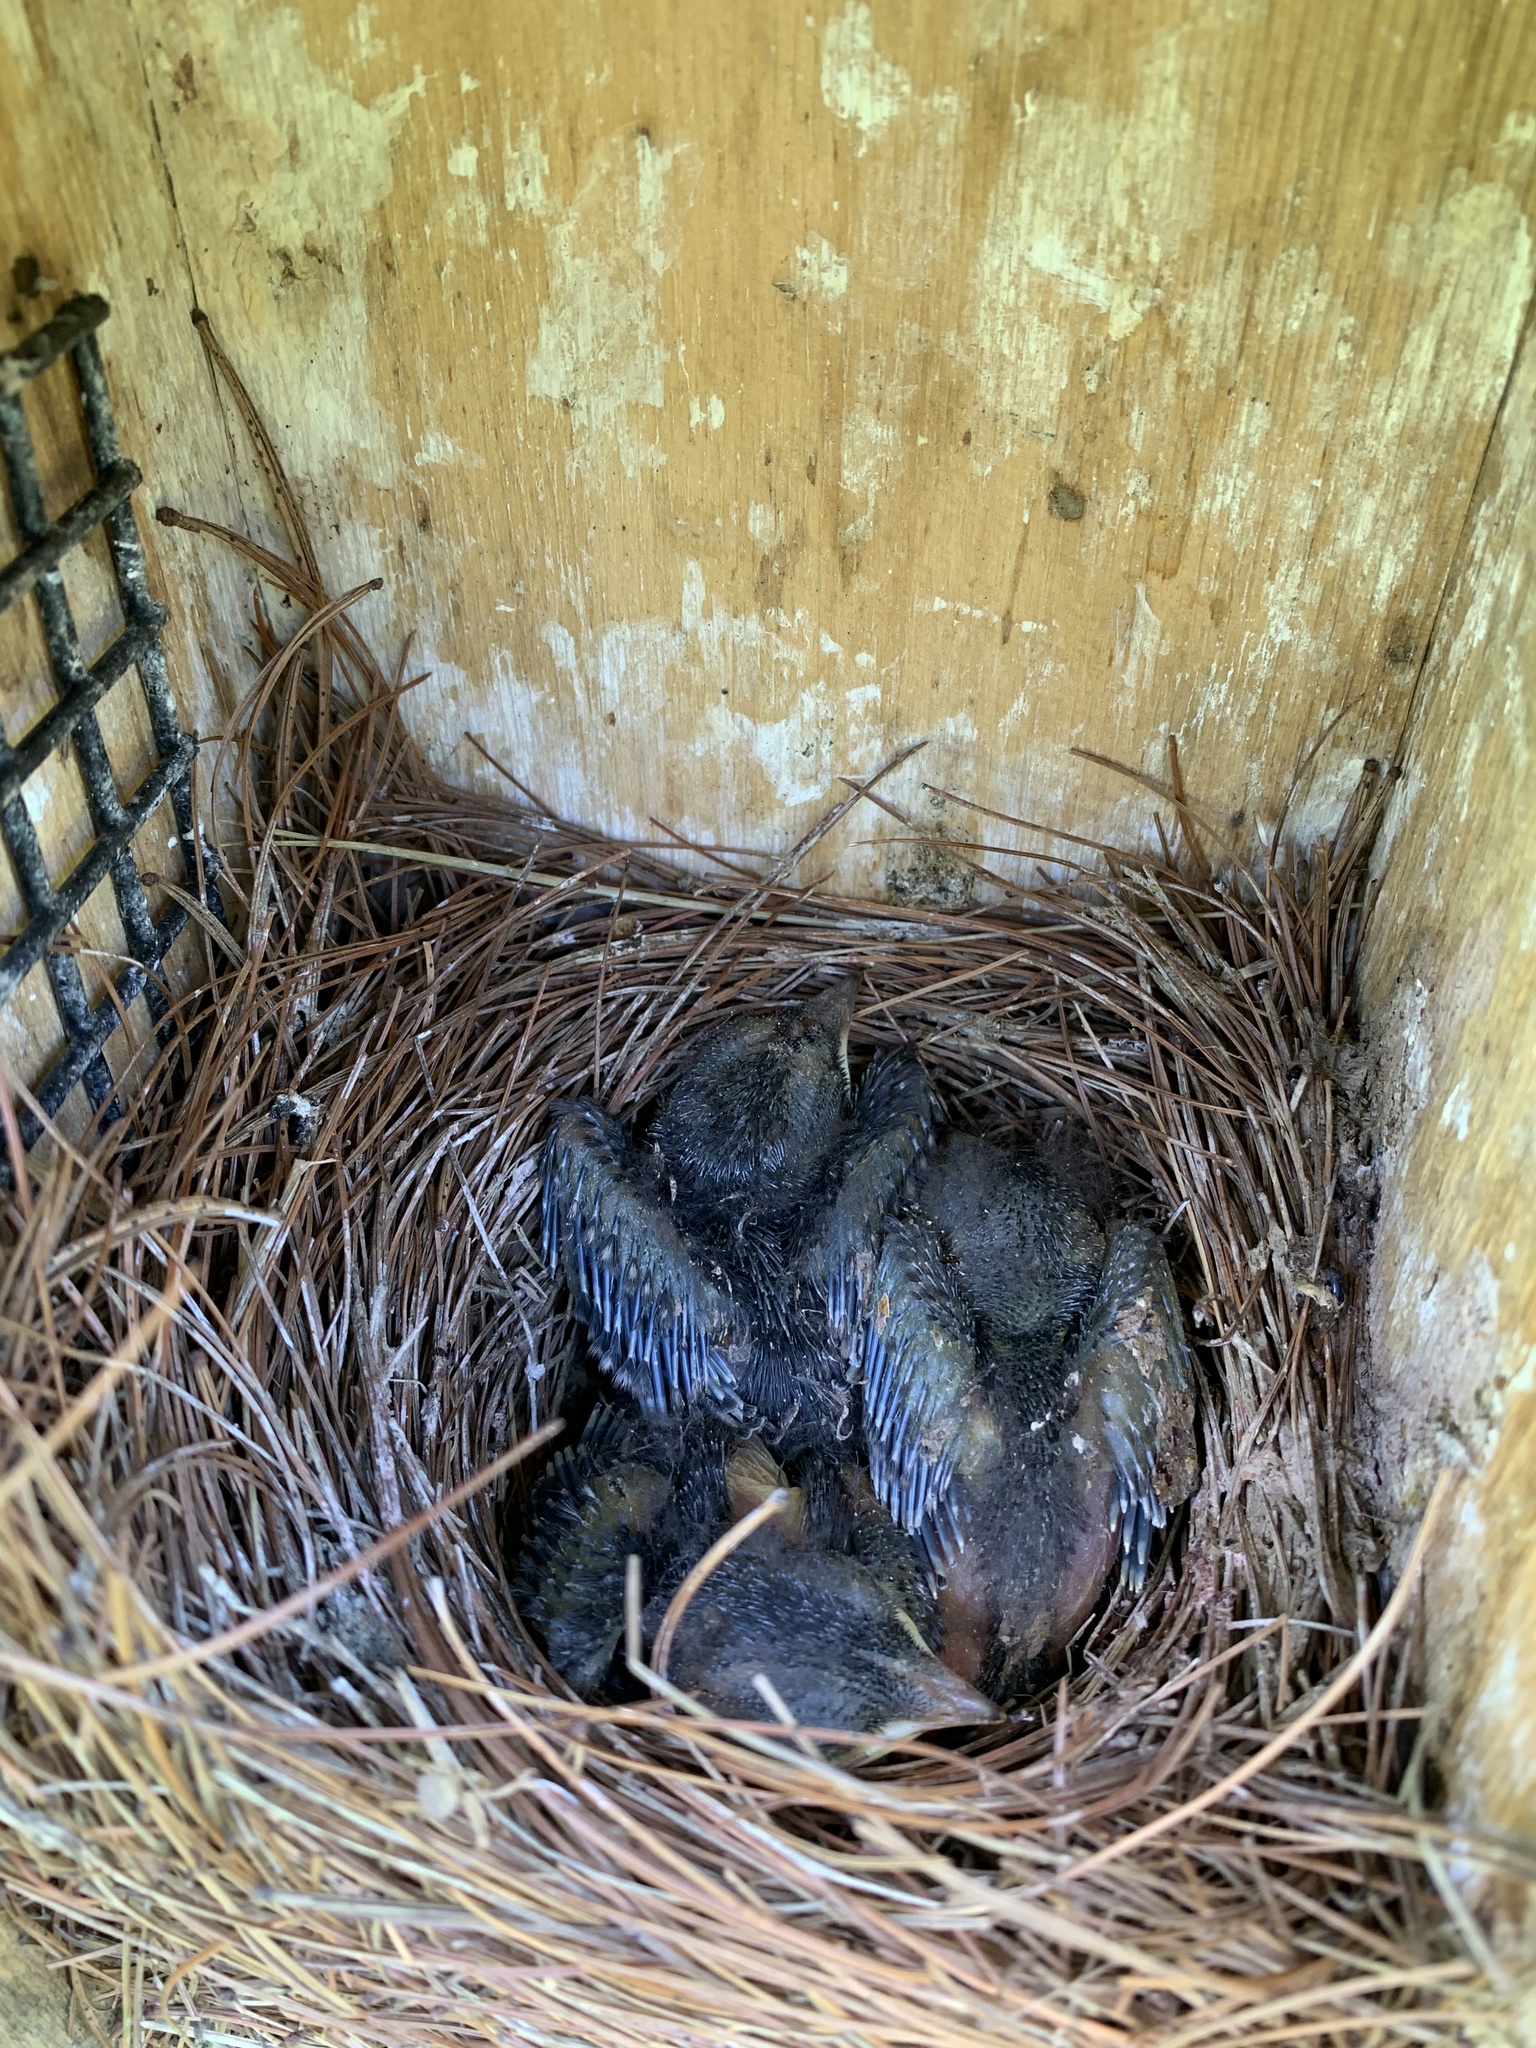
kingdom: Animalia
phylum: Chordata
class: Aves
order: Passeriformes
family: Turdidae
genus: Sialia
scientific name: Sialia sialis
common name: Eastern bluebird
